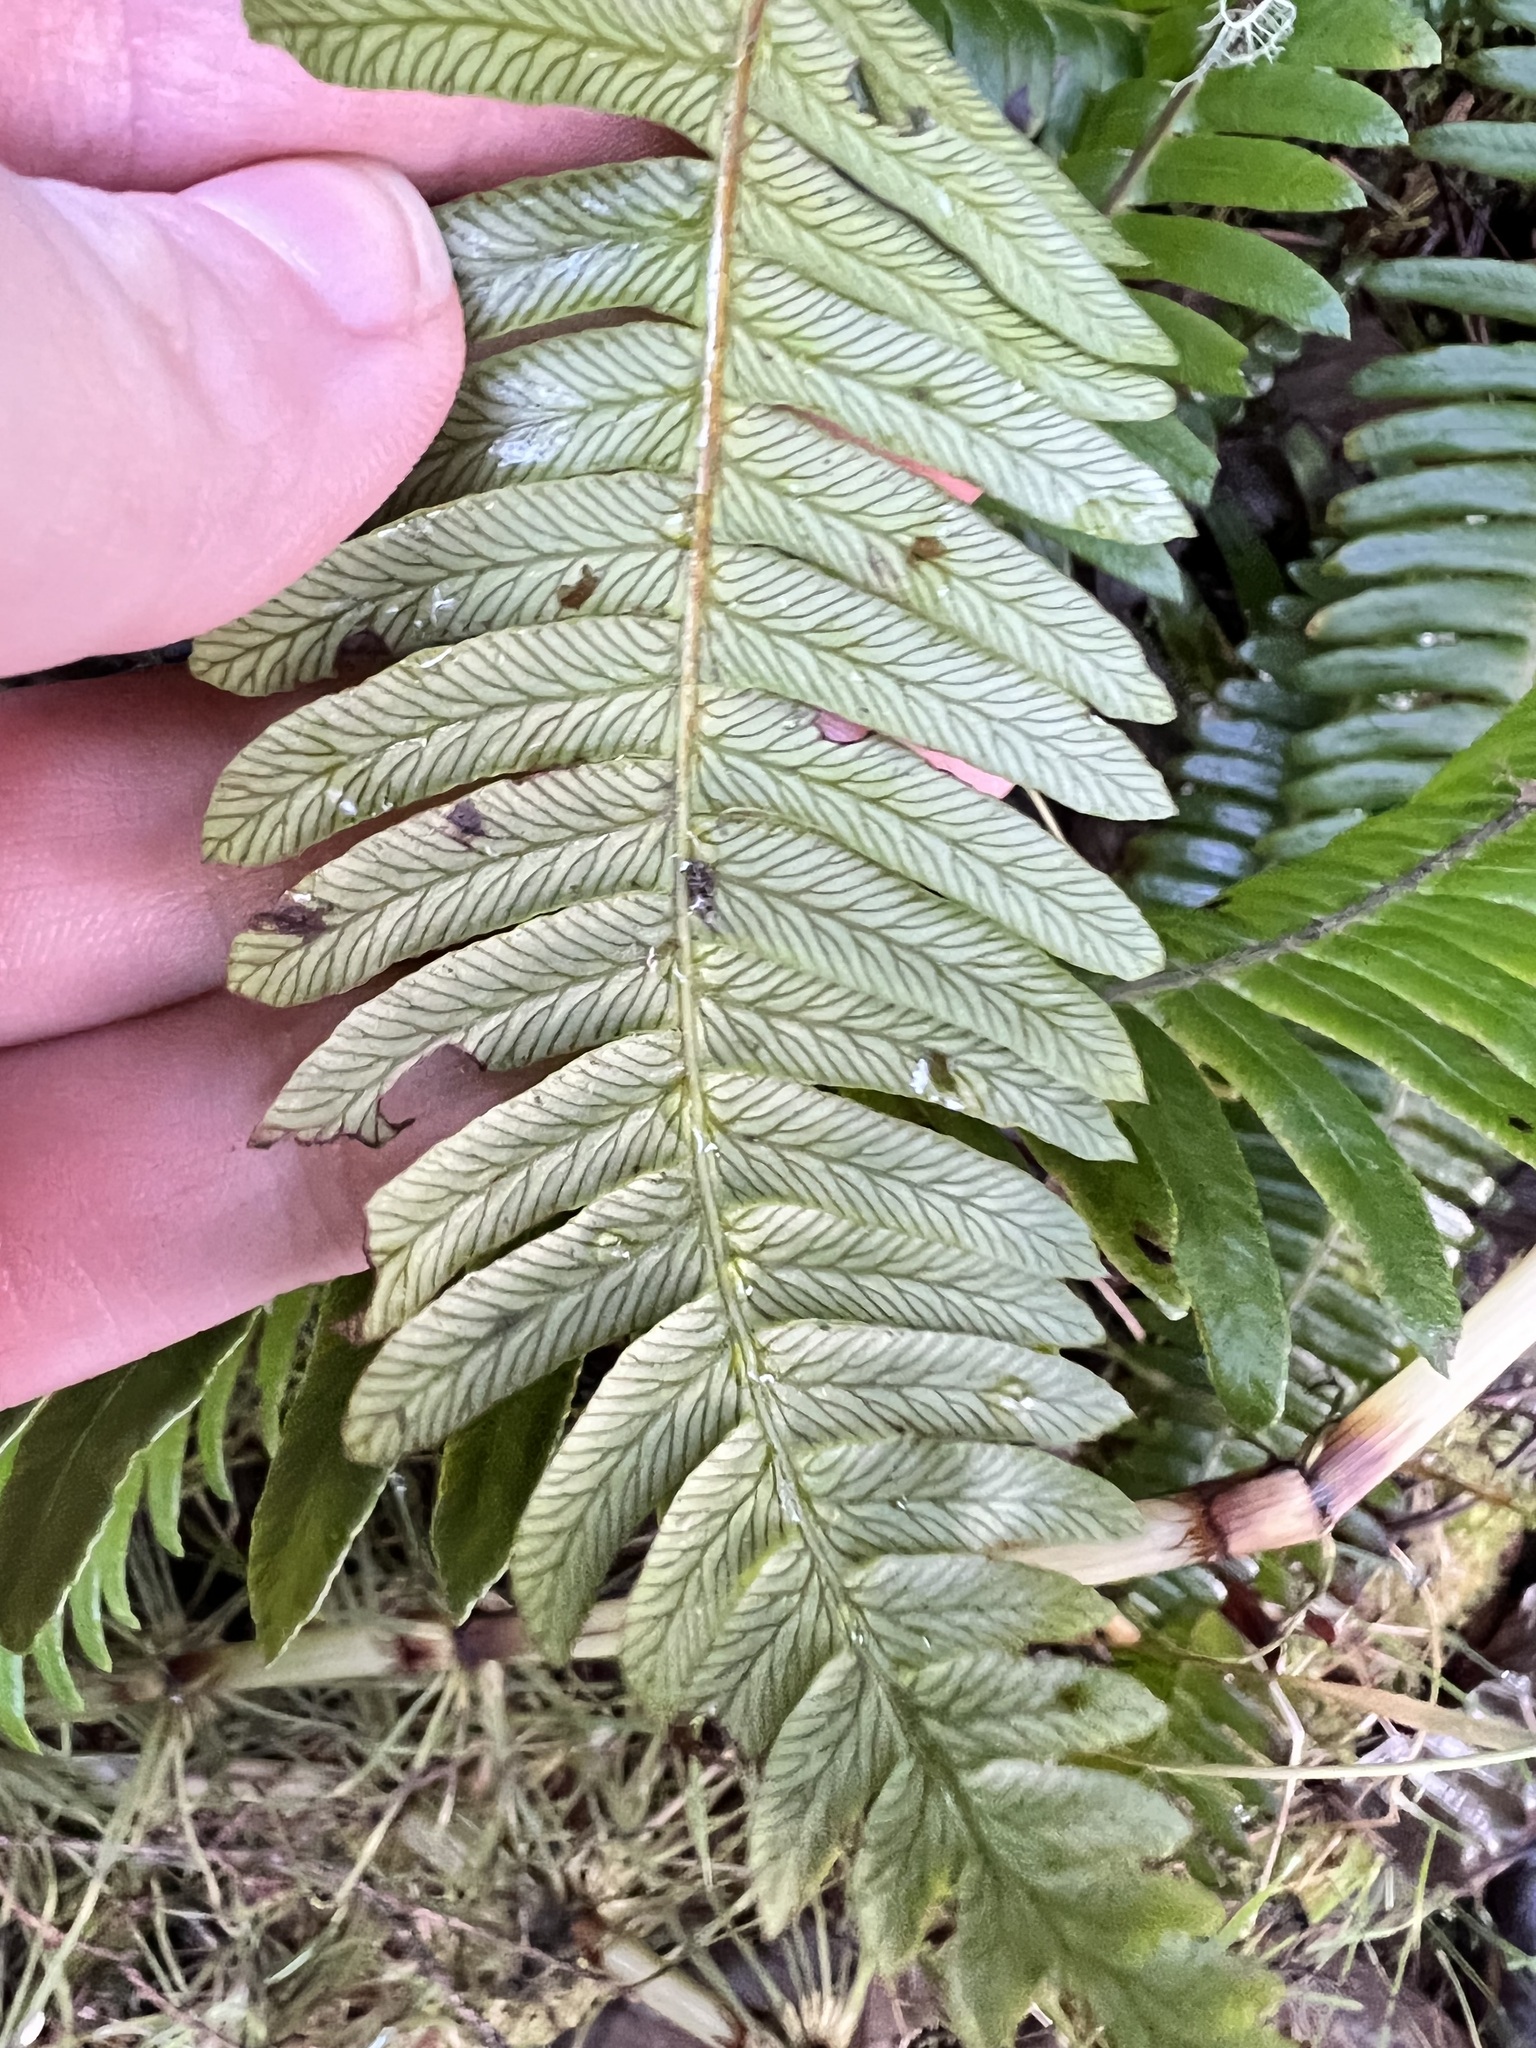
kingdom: Plantae
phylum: Tracheophyta
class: Polypodiopsida
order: Polypodiales
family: Blechnaceae
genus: Struthiopteris
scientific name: Struthiopteris spicant
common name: Deer fern
